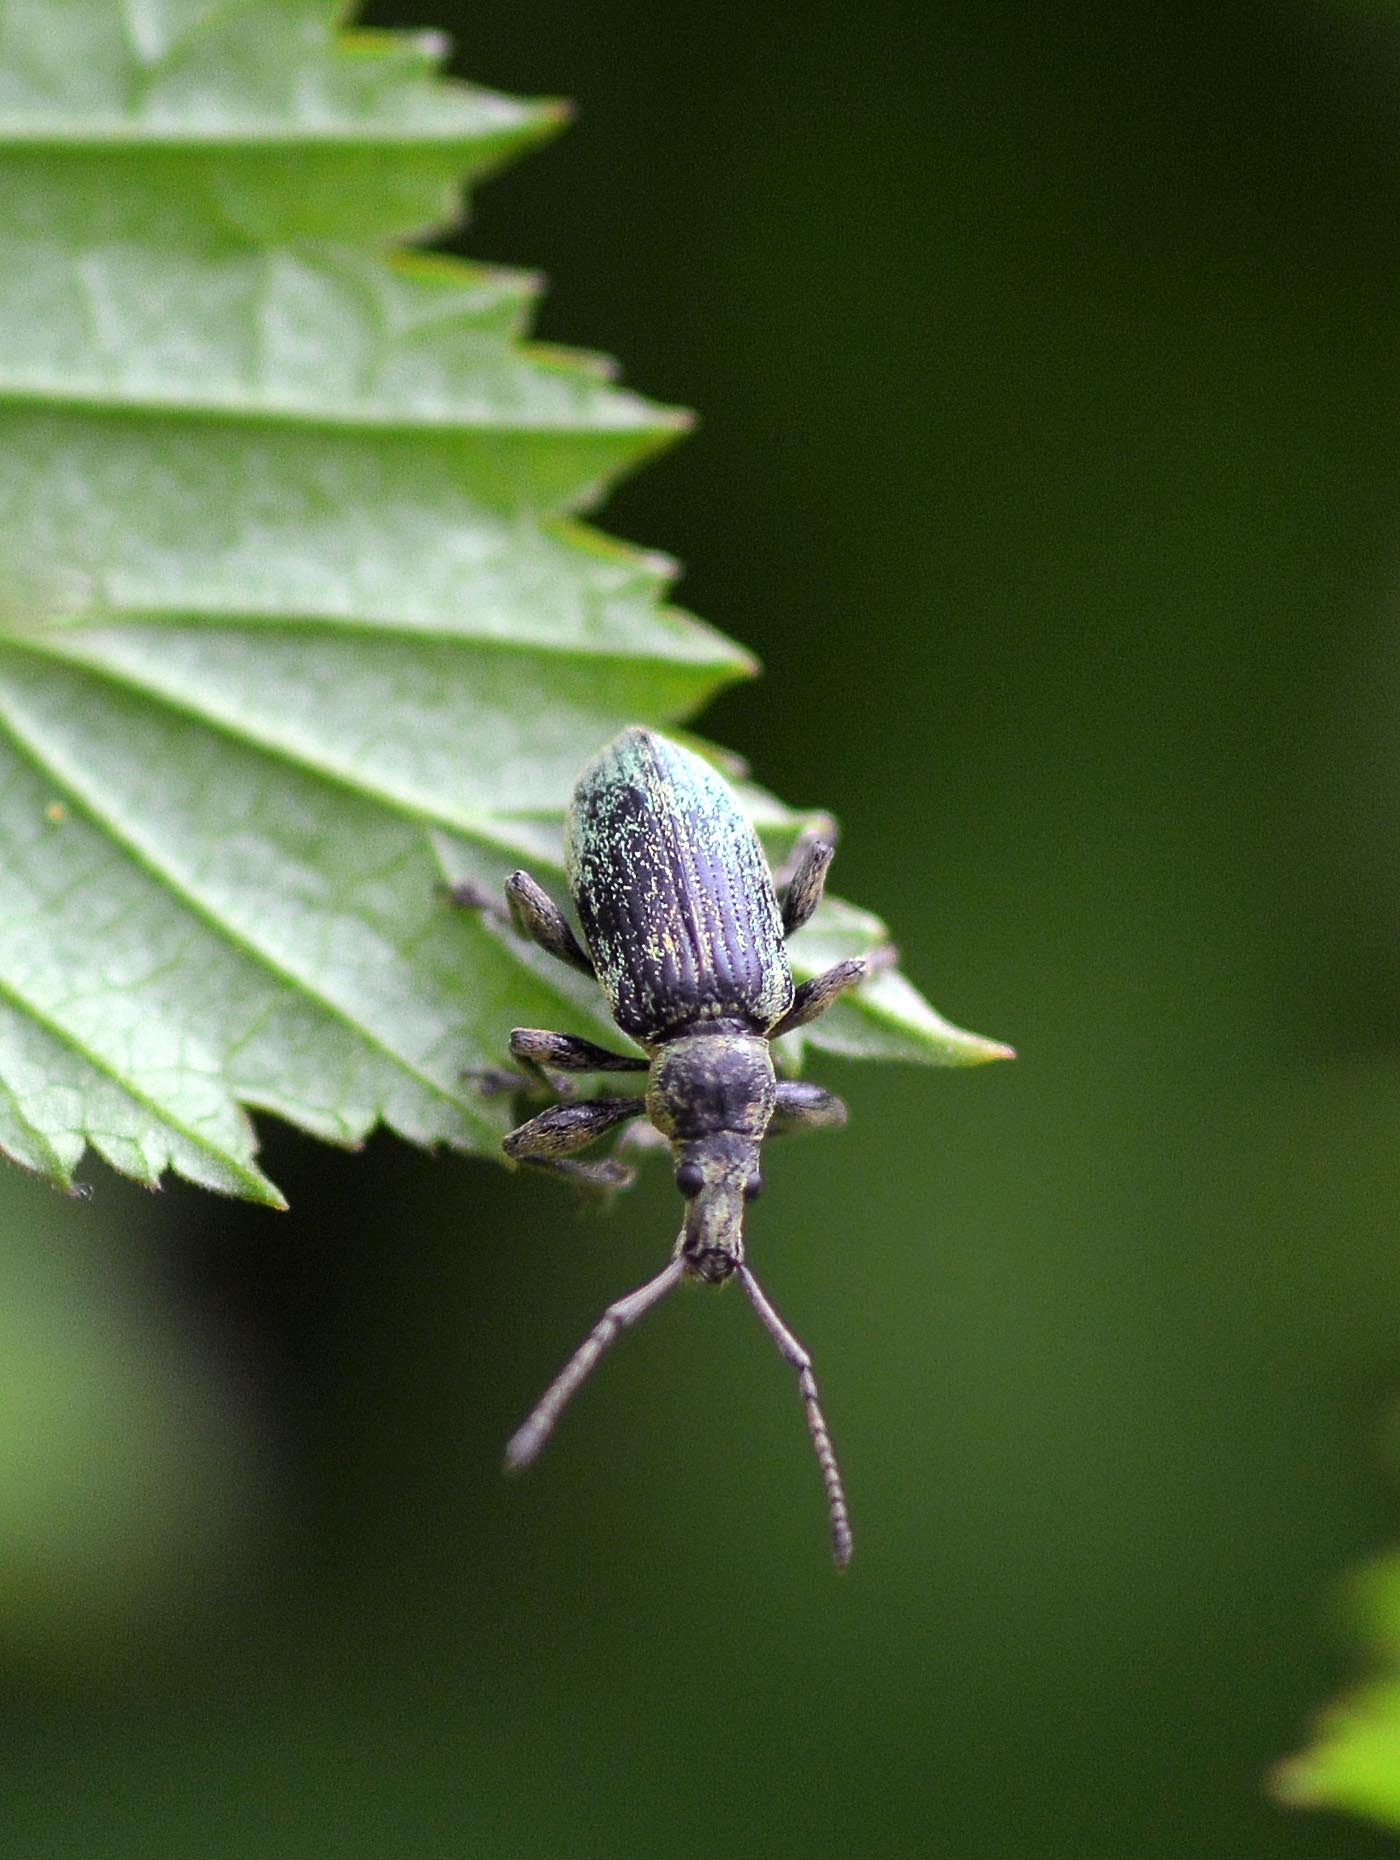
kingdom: Animalia
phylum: Arthropoda
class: Insecta
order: Coleoptera
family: Curculionidae
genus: Phyllobius
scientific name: Phyllobius pomaceus
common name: Green nettle weevil
